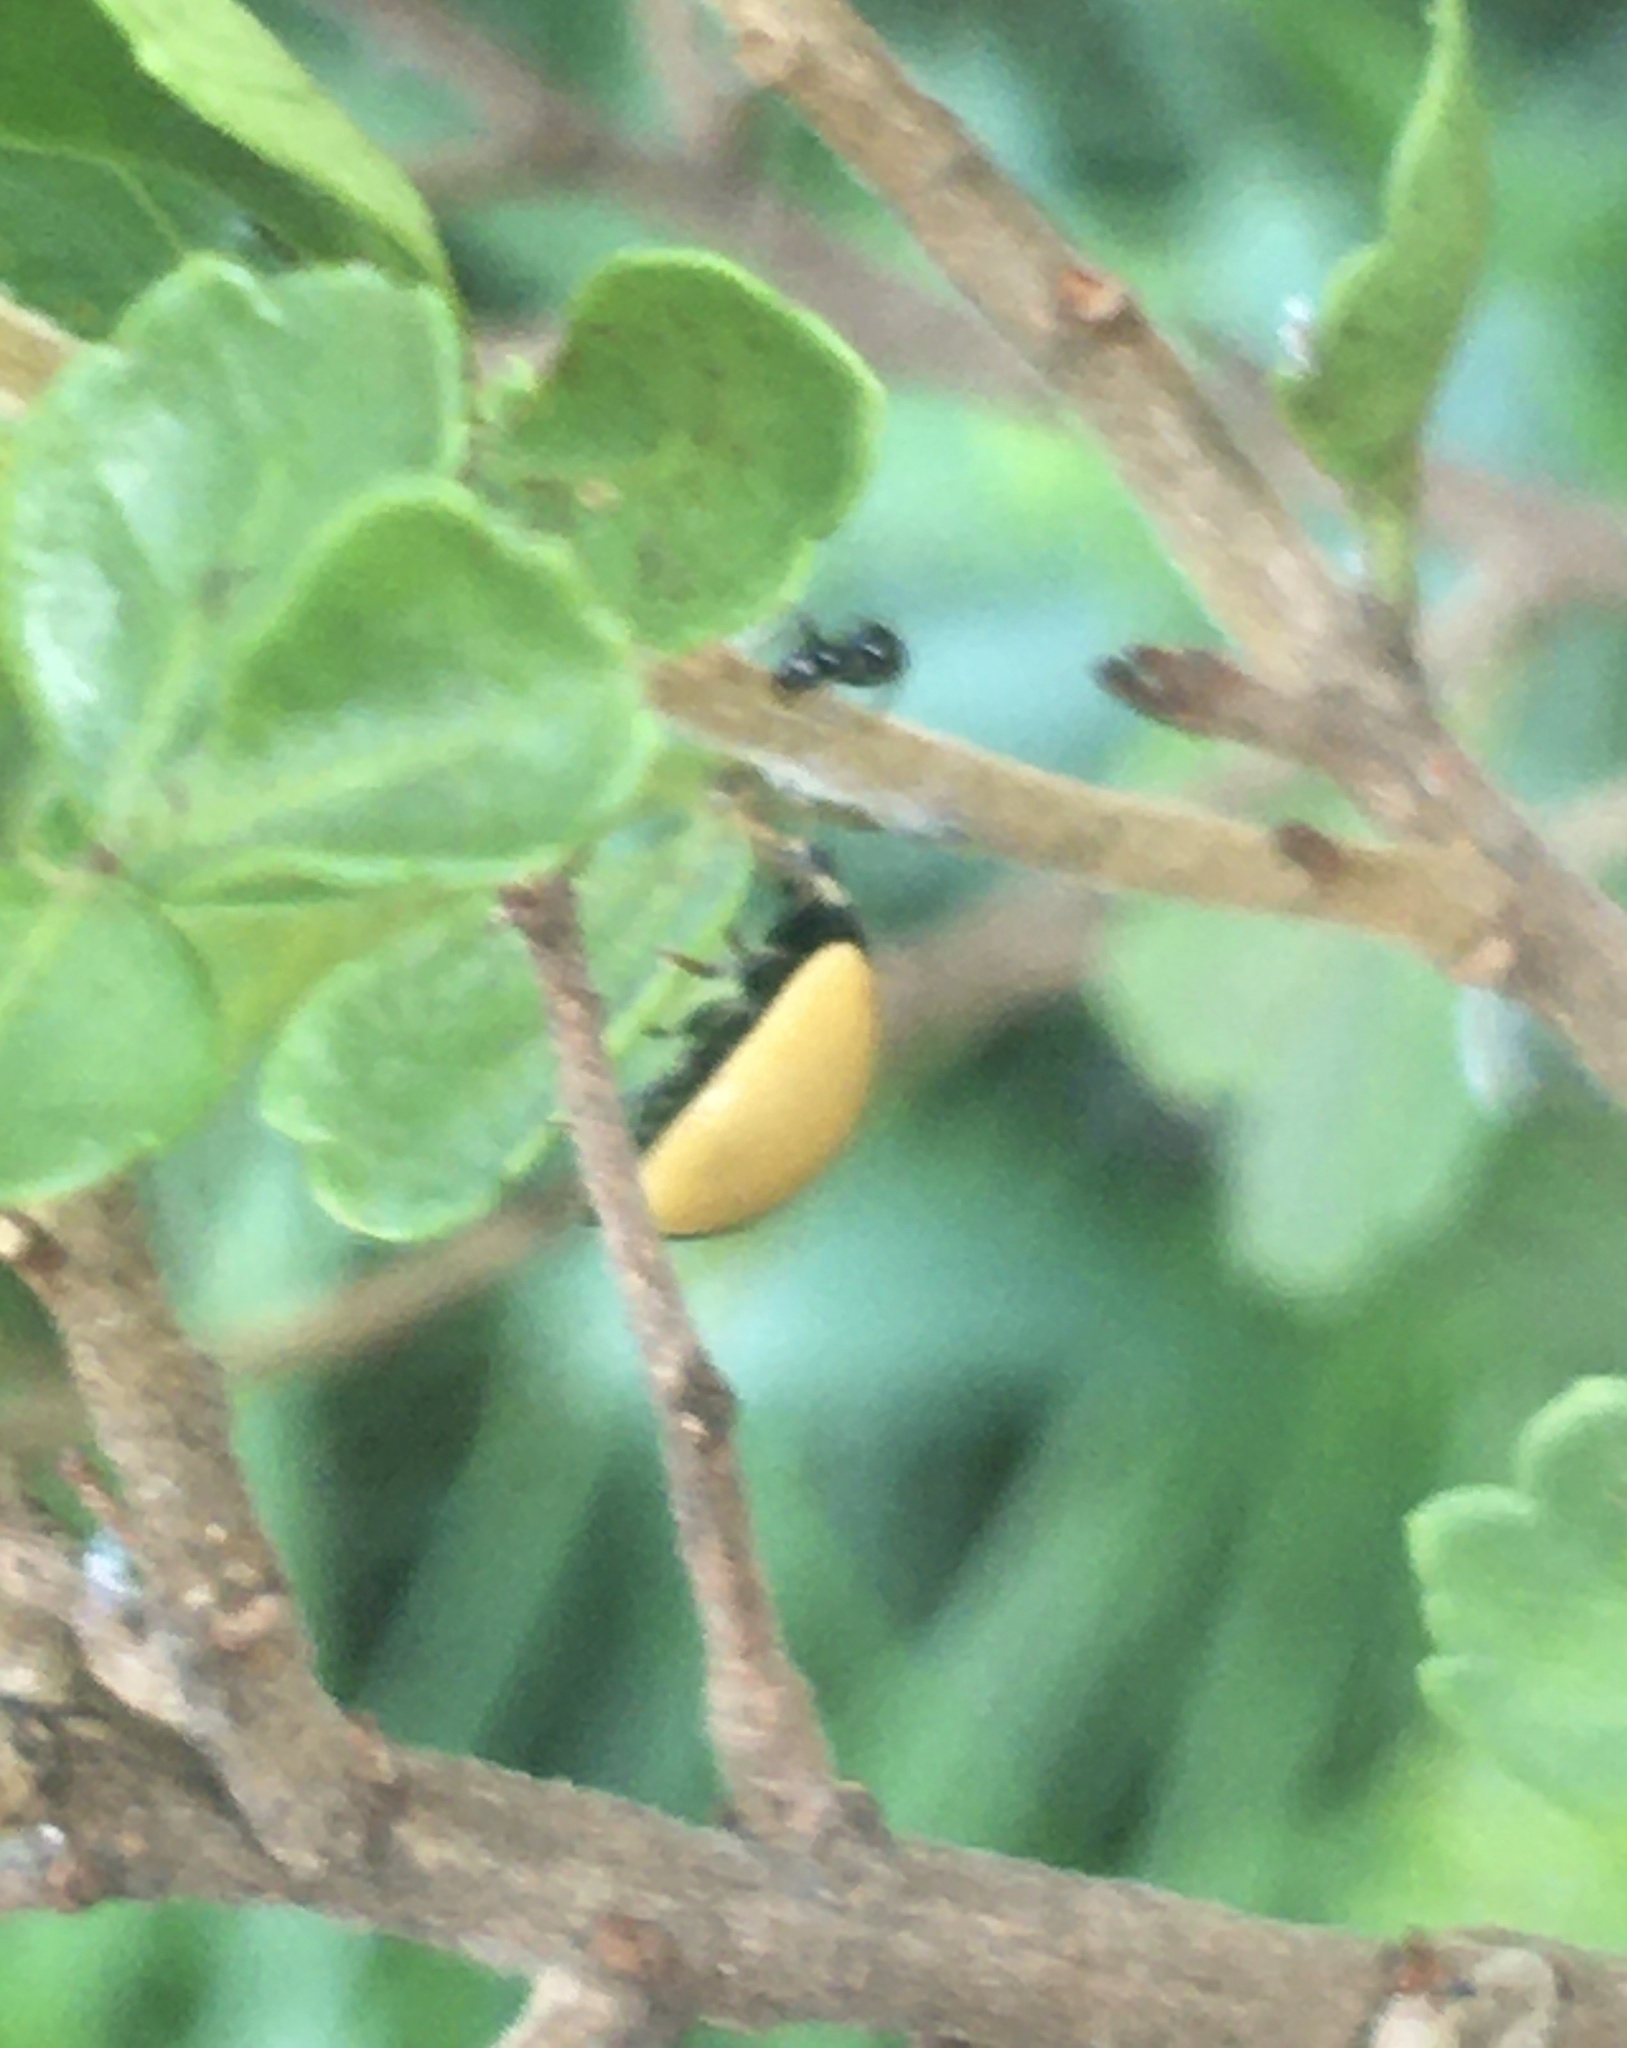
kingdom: Animalia
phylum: Arthropoda
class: Insecta
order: Coleoptera
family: Coccinellidae
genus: Oenopia
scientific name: Oenopia
